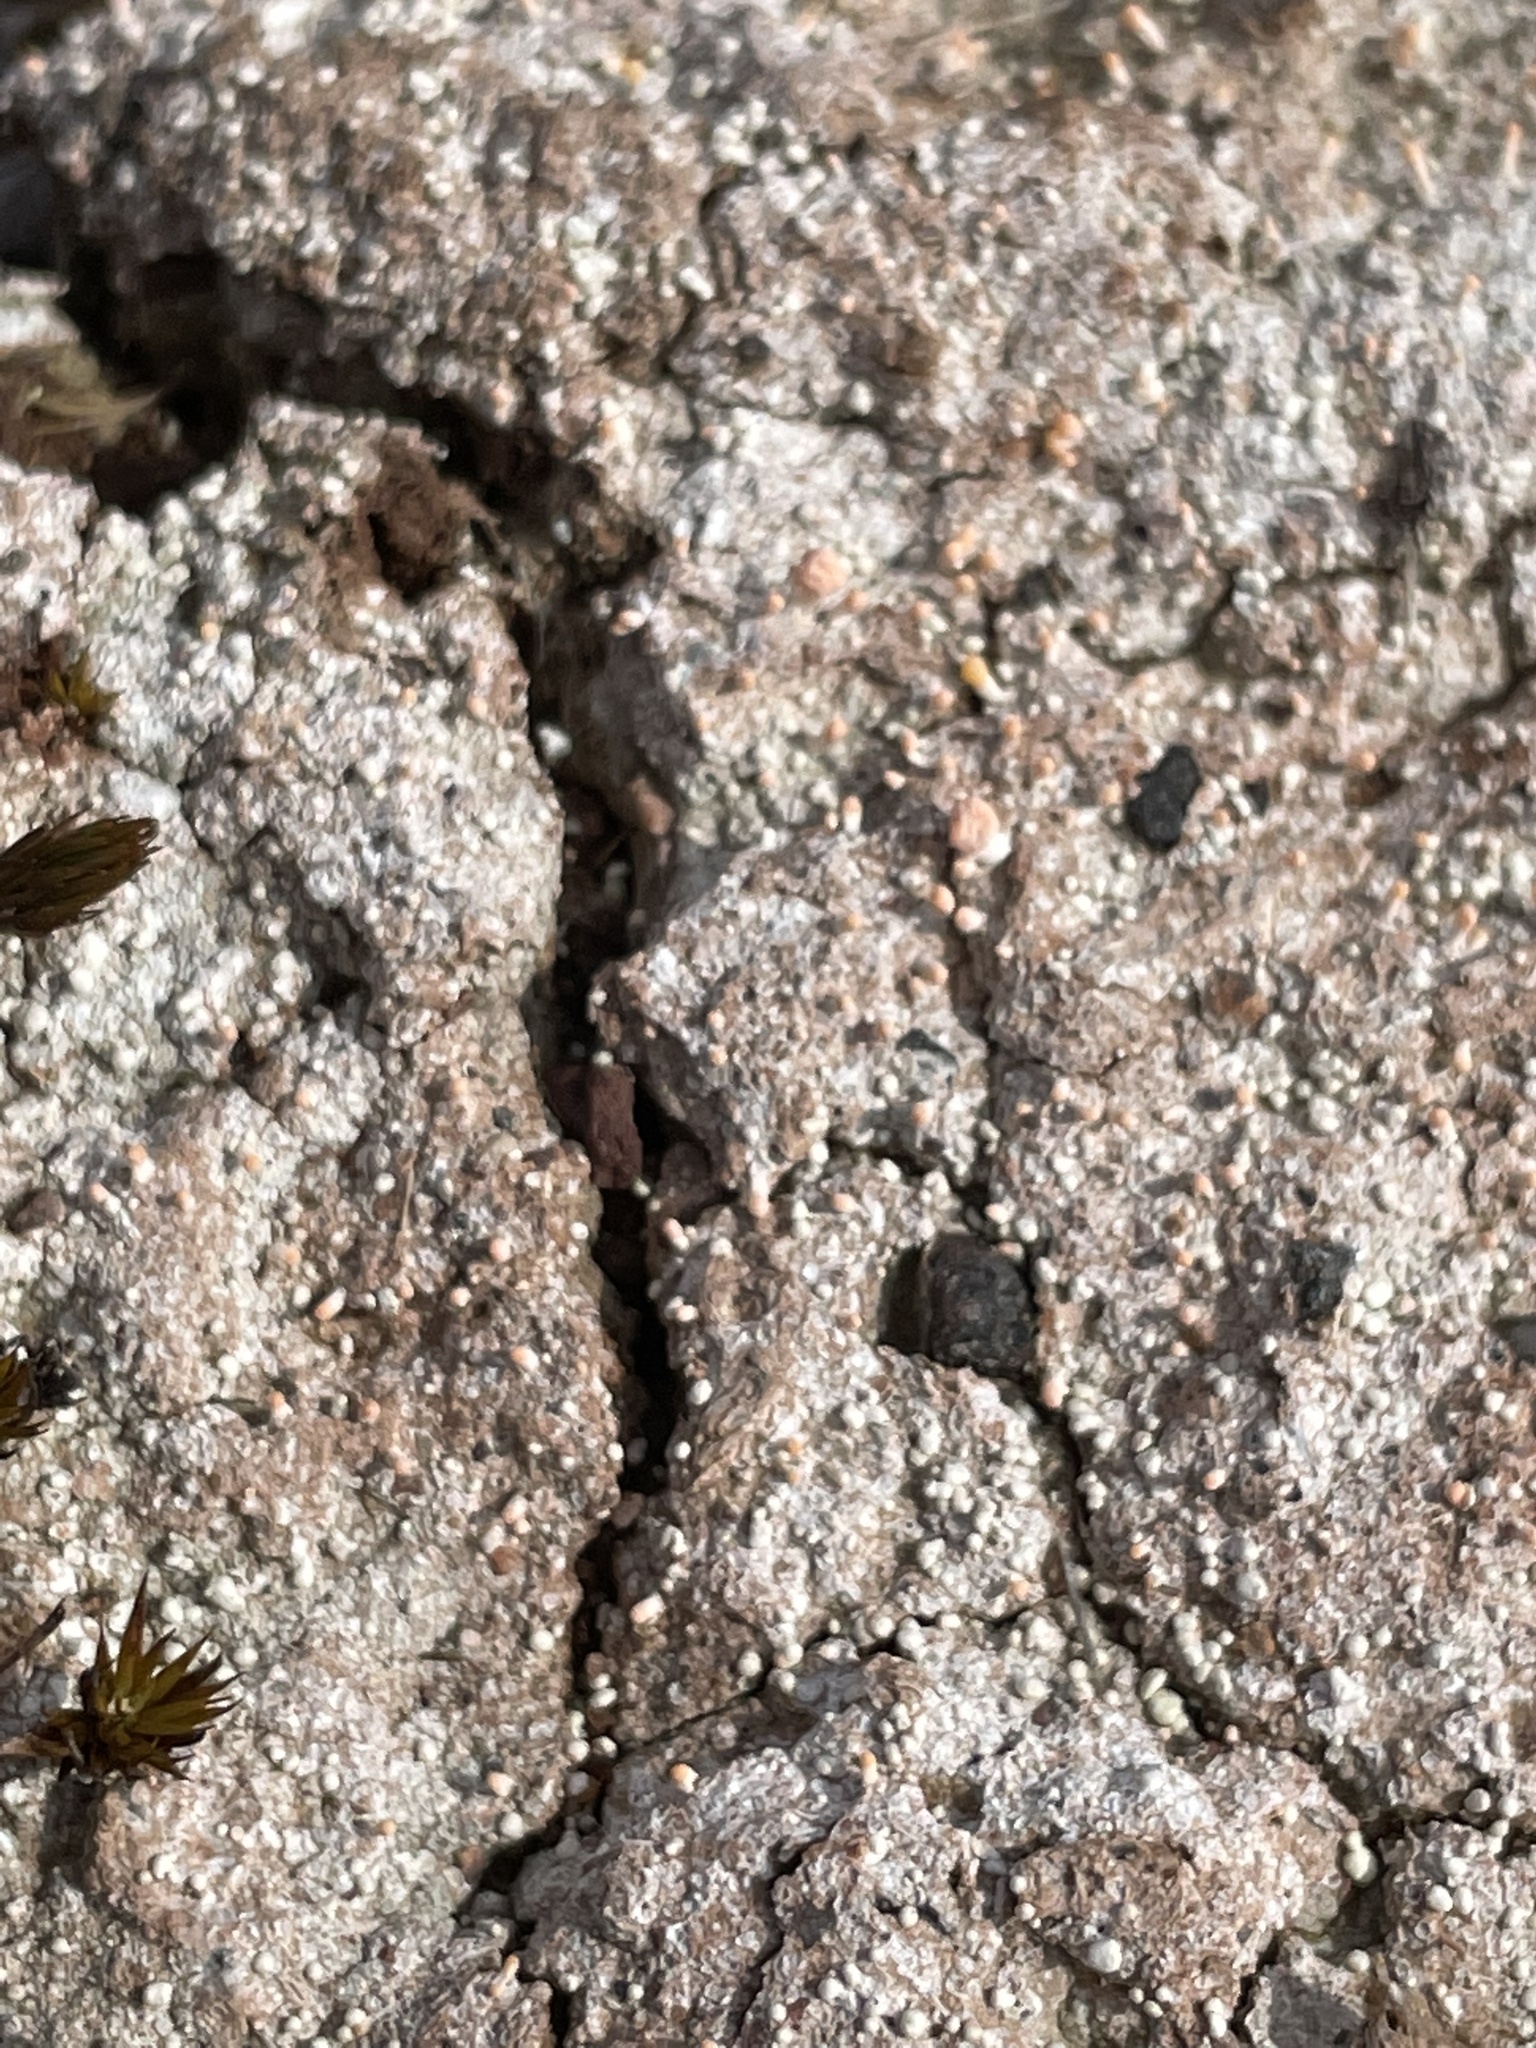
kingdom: Fungi
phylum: Ascomycota
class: Lecanoromycetes
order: Pertusariales
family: Icmadophilaceae
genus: Dibaeis
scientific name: Dibaeis baeomyces
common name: Pink earth lichen
